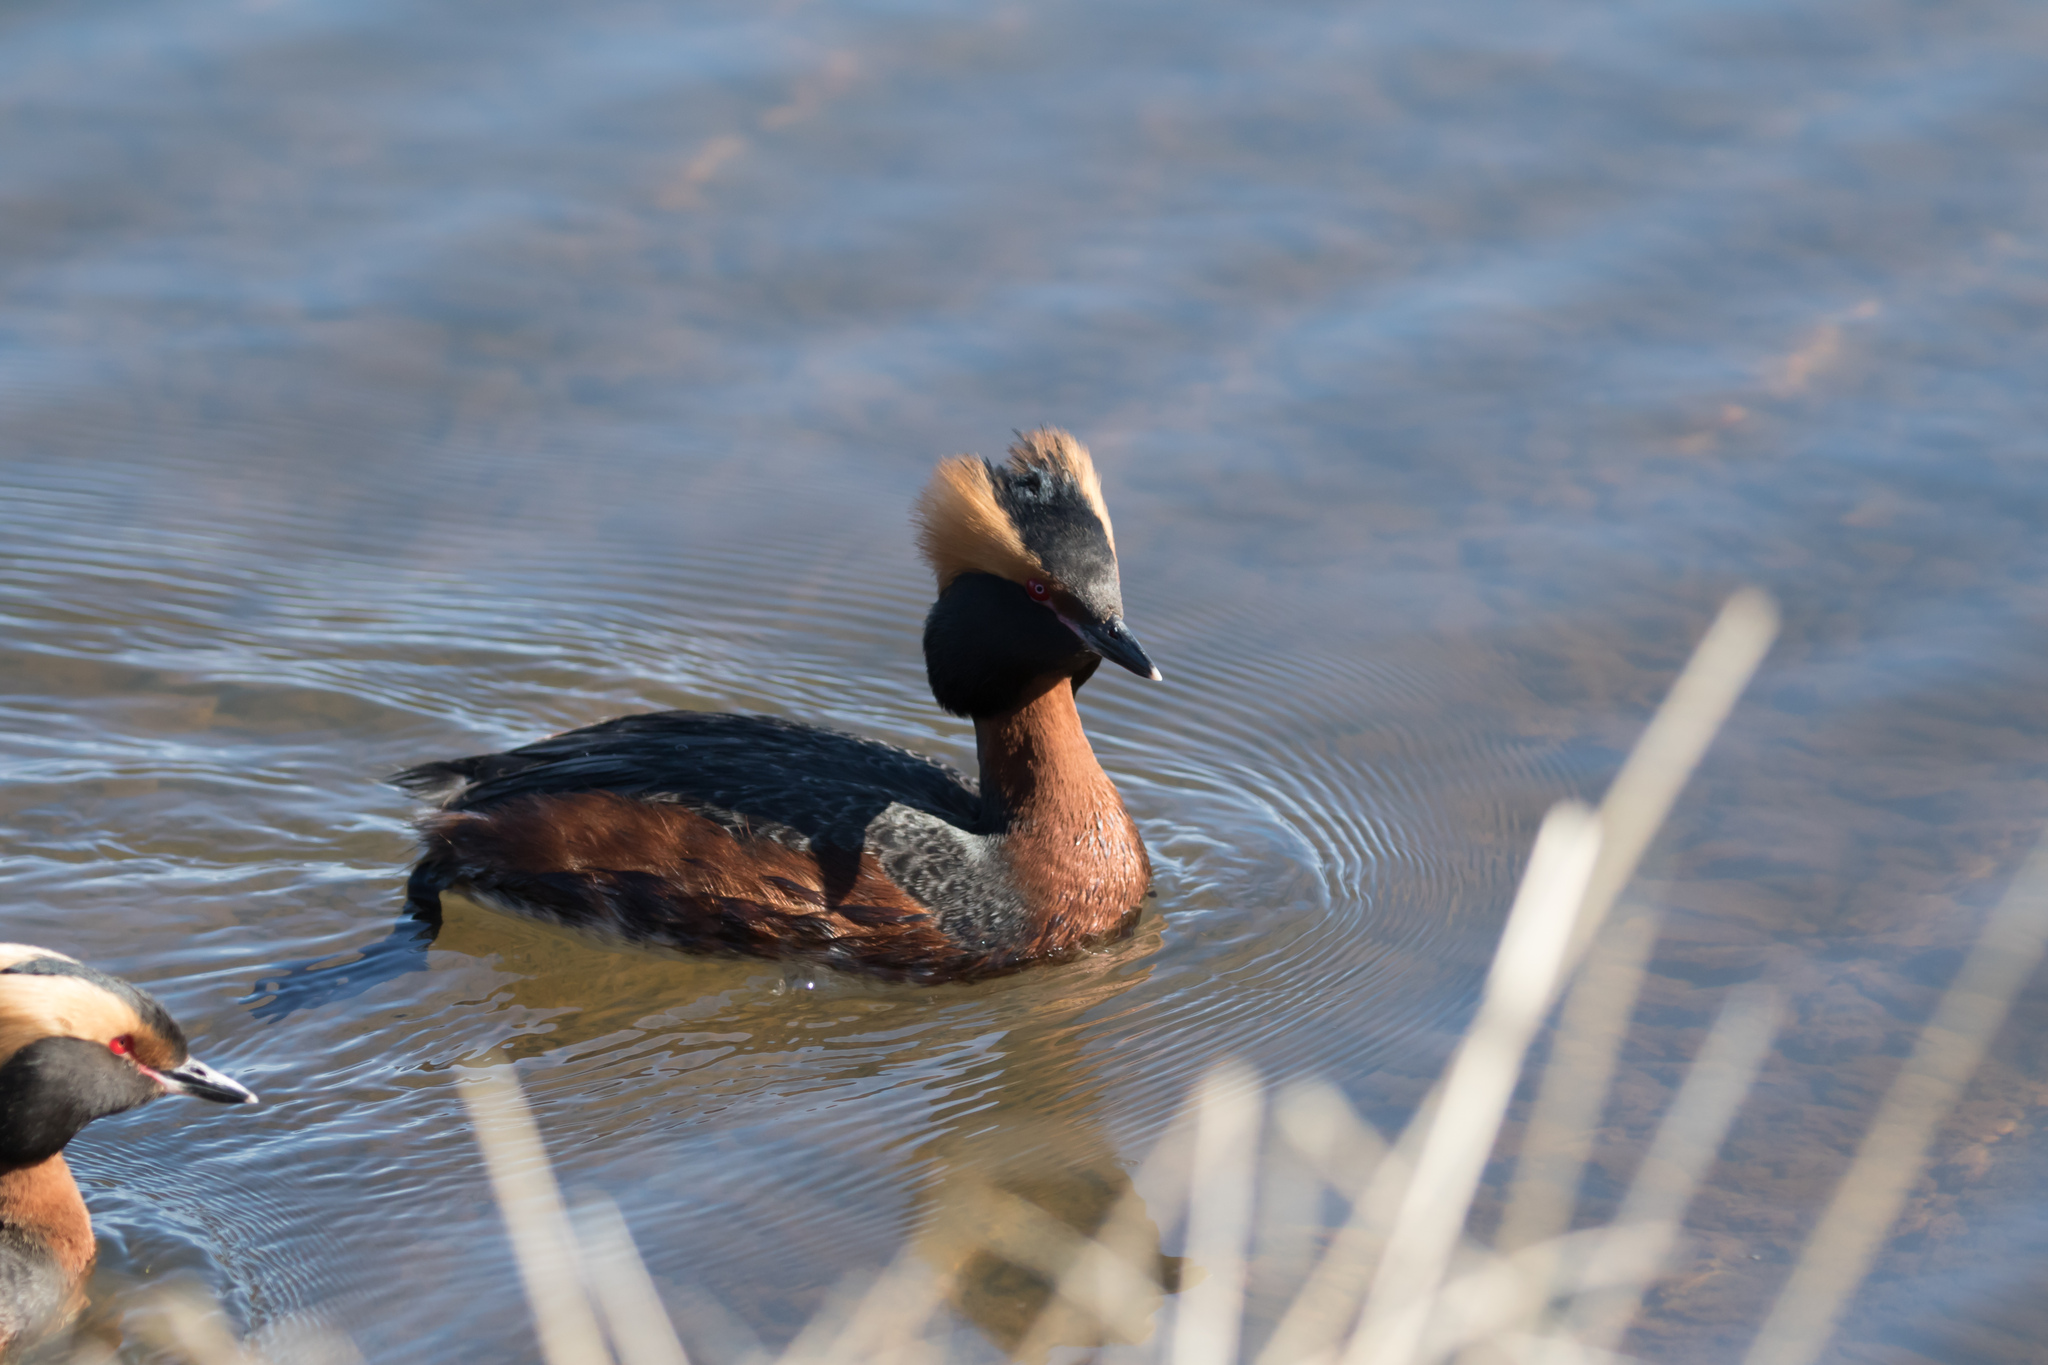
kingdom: Animalia
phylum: Chordata
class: Aves
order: Podicipediformes
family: Podicipedidae
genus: Podiceps
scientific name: Podiceps auritus
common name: Horned grebe
